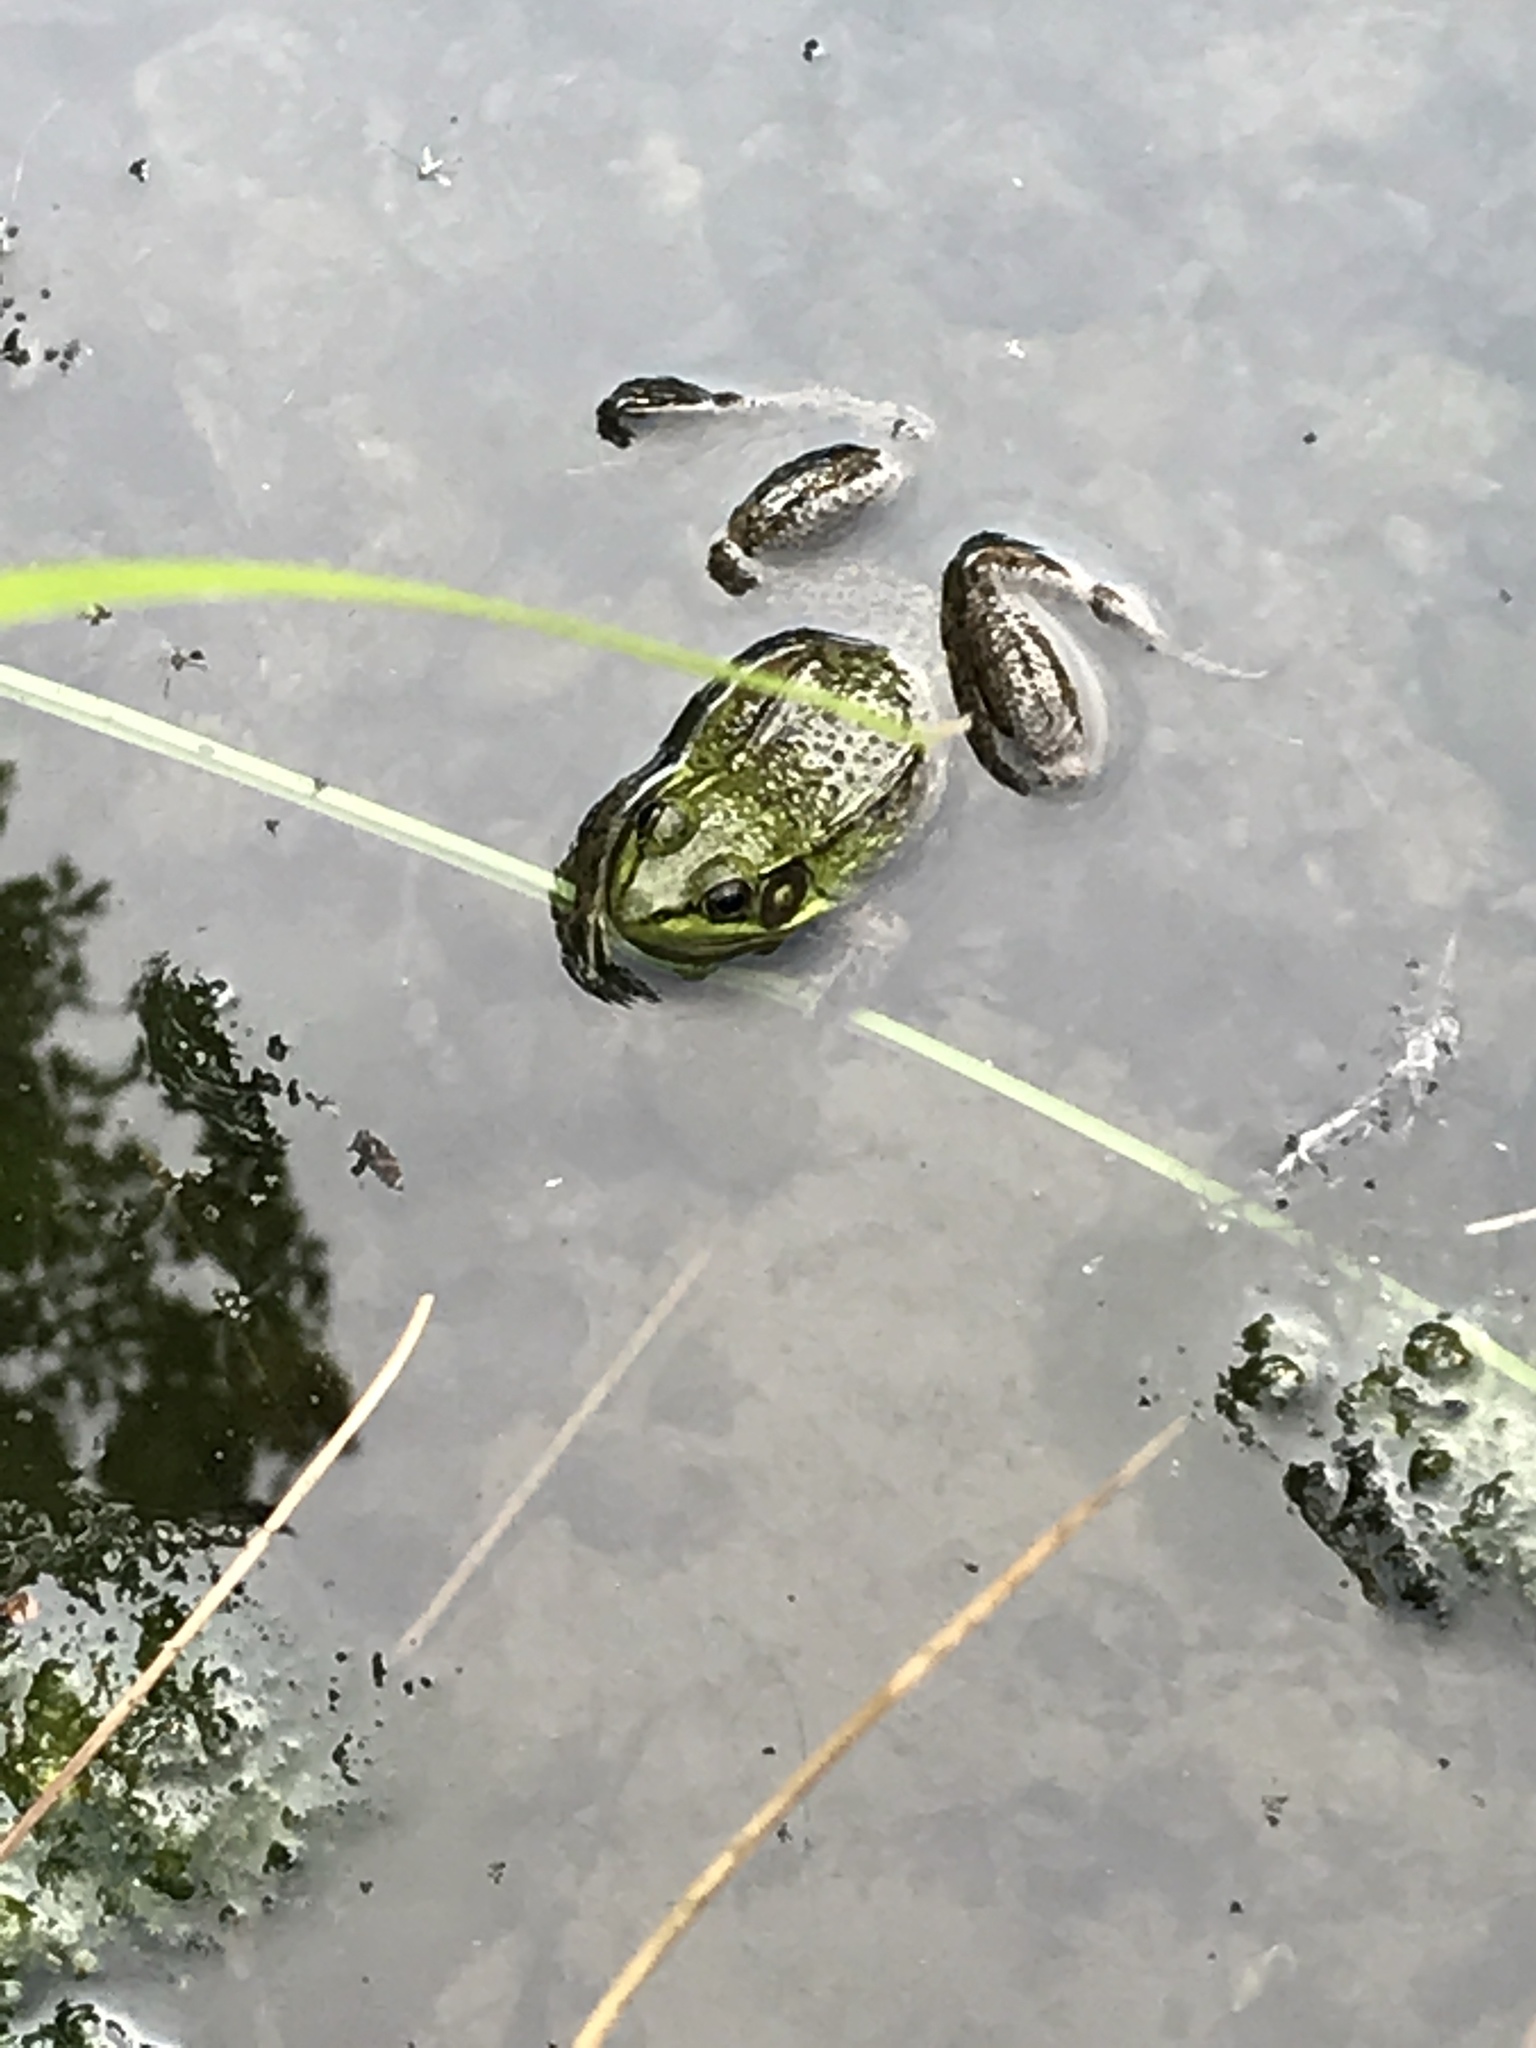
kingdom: Animalia
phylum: Chordata
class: Amphibia
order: Anura
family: Ranidae
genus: Lithobates
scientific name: Lithobates clamitans
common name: Green frog
